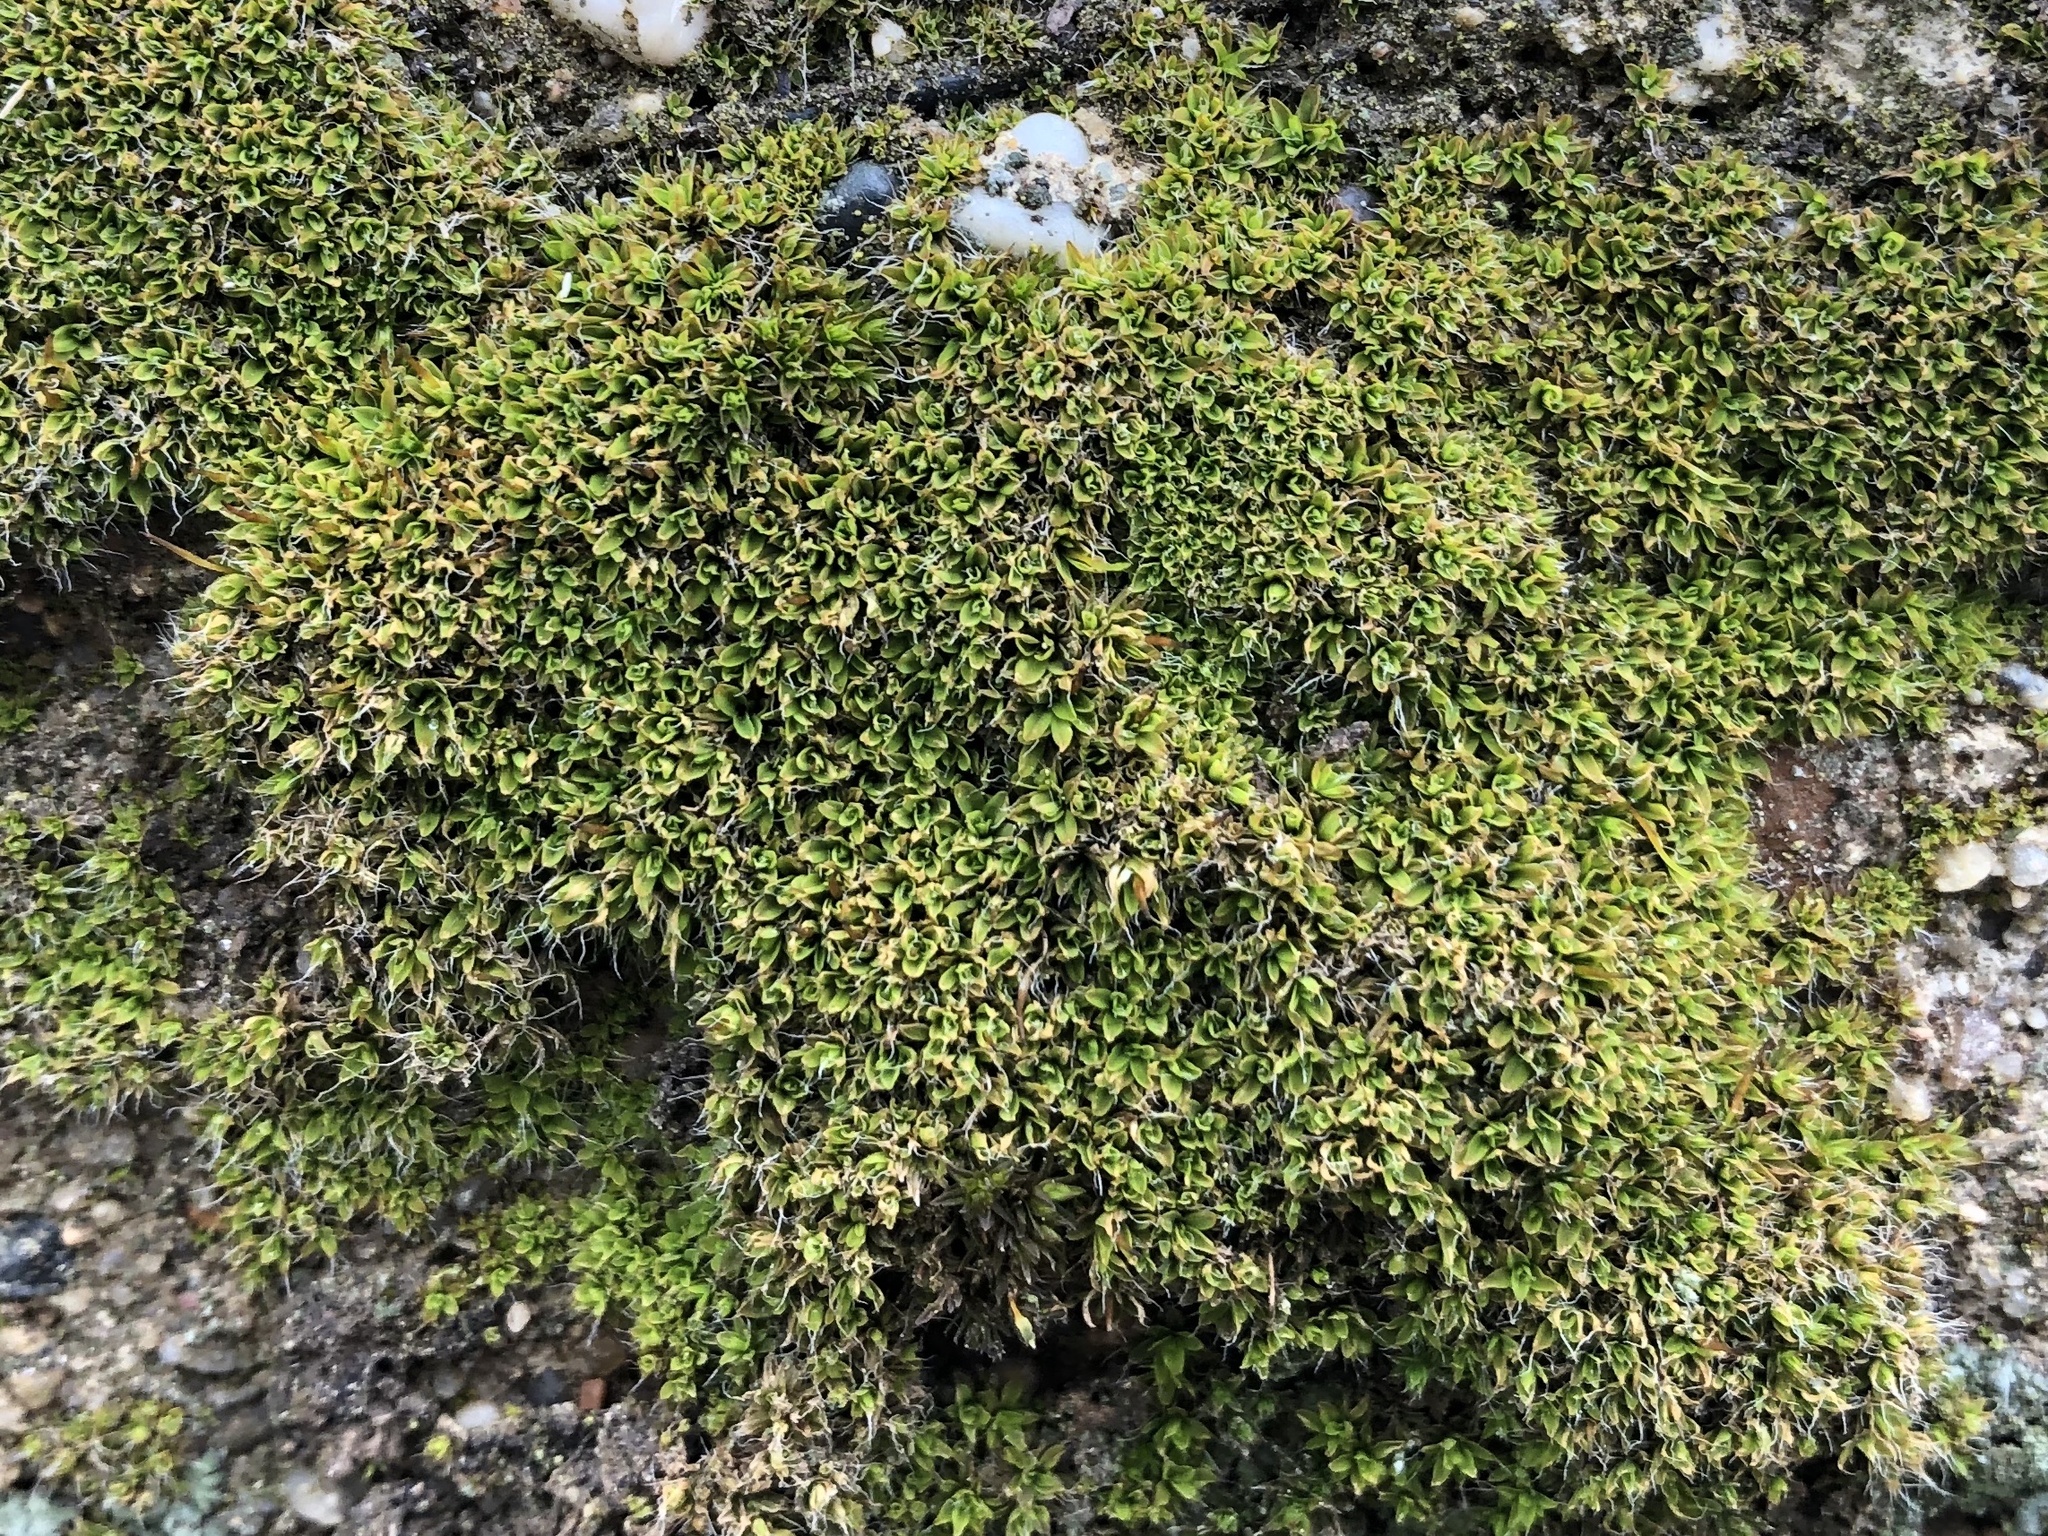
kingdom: Plantae
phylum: Bryophyta
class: Bryopsida
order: Pottiales
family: Pottiaceae
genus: Tortula
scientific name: Tortula muralis
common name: Wall screw-moss
